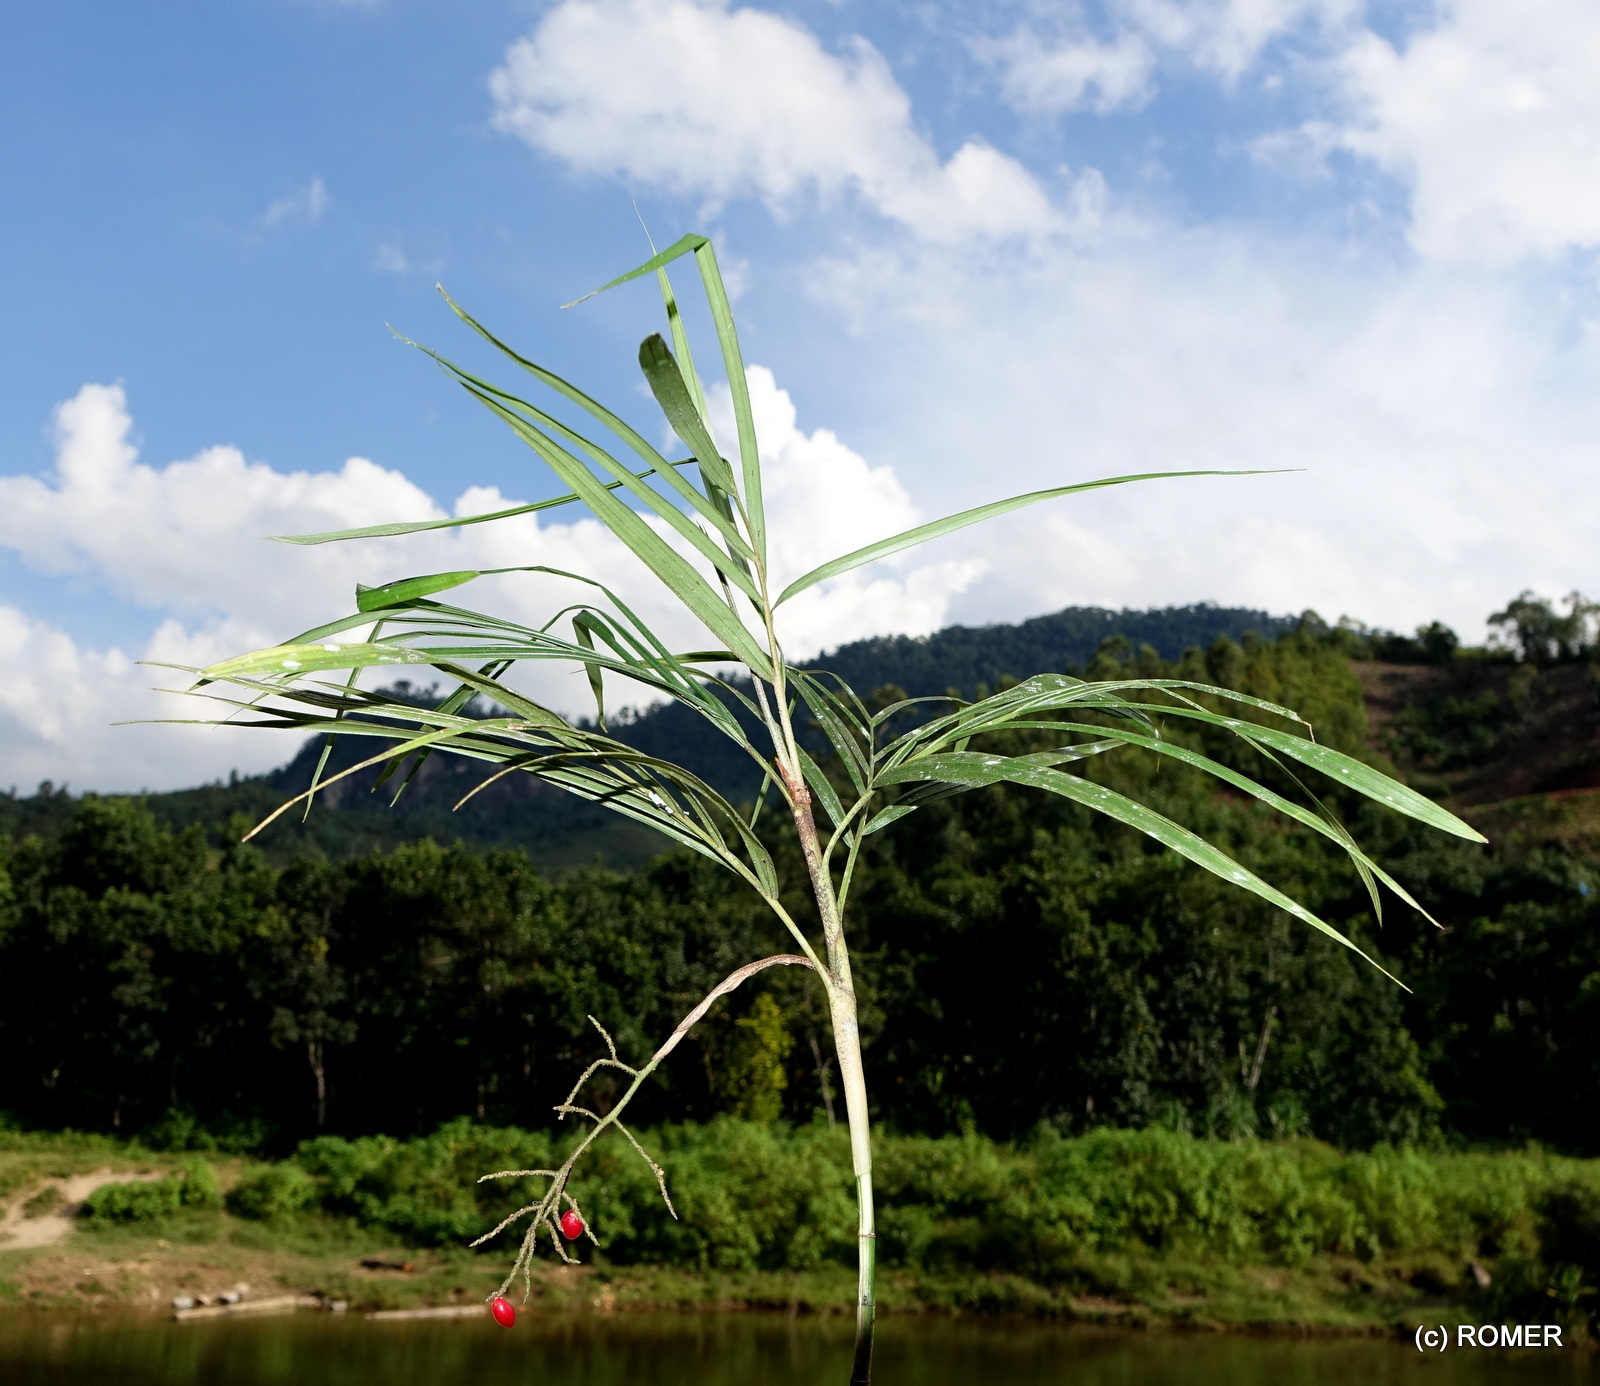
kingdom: Plantae
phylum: Tracheophyta
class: Liliopsida
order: Arecales
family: Arecaceae
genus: Dypsis
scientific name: Dypsis thermarum
